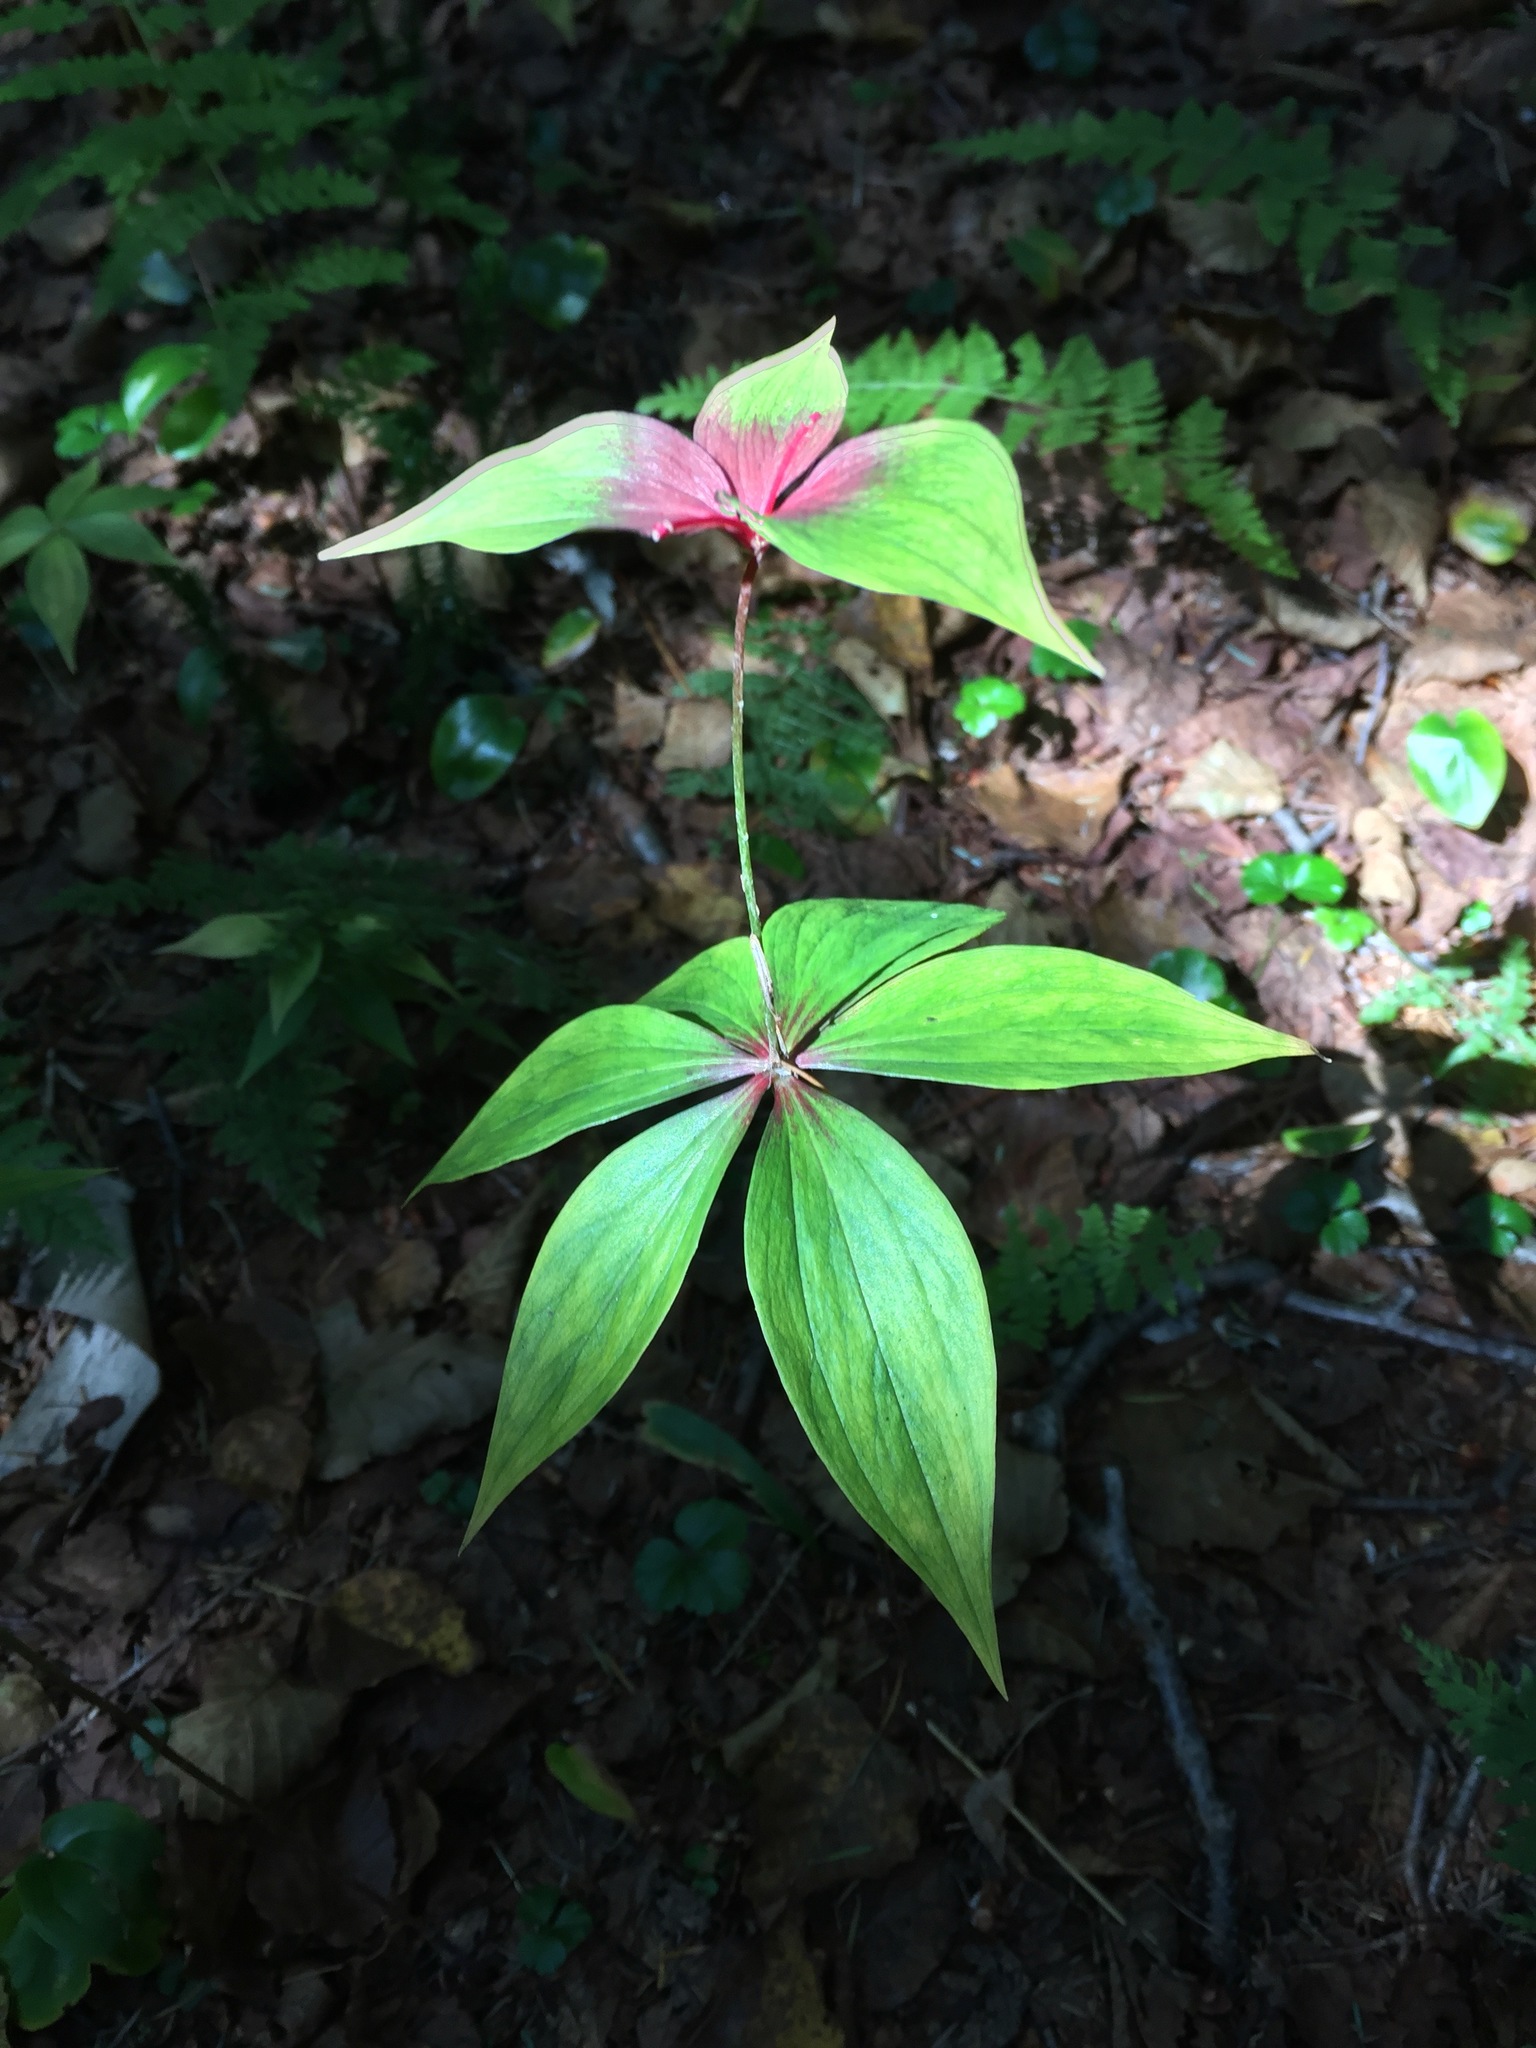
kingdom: Plantae
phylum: Tracheophyta
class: Liliopsida
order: Liliales
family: Liliaceae
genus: Medeola
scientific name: Medeola virginiana
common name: Indian cucumber-root
